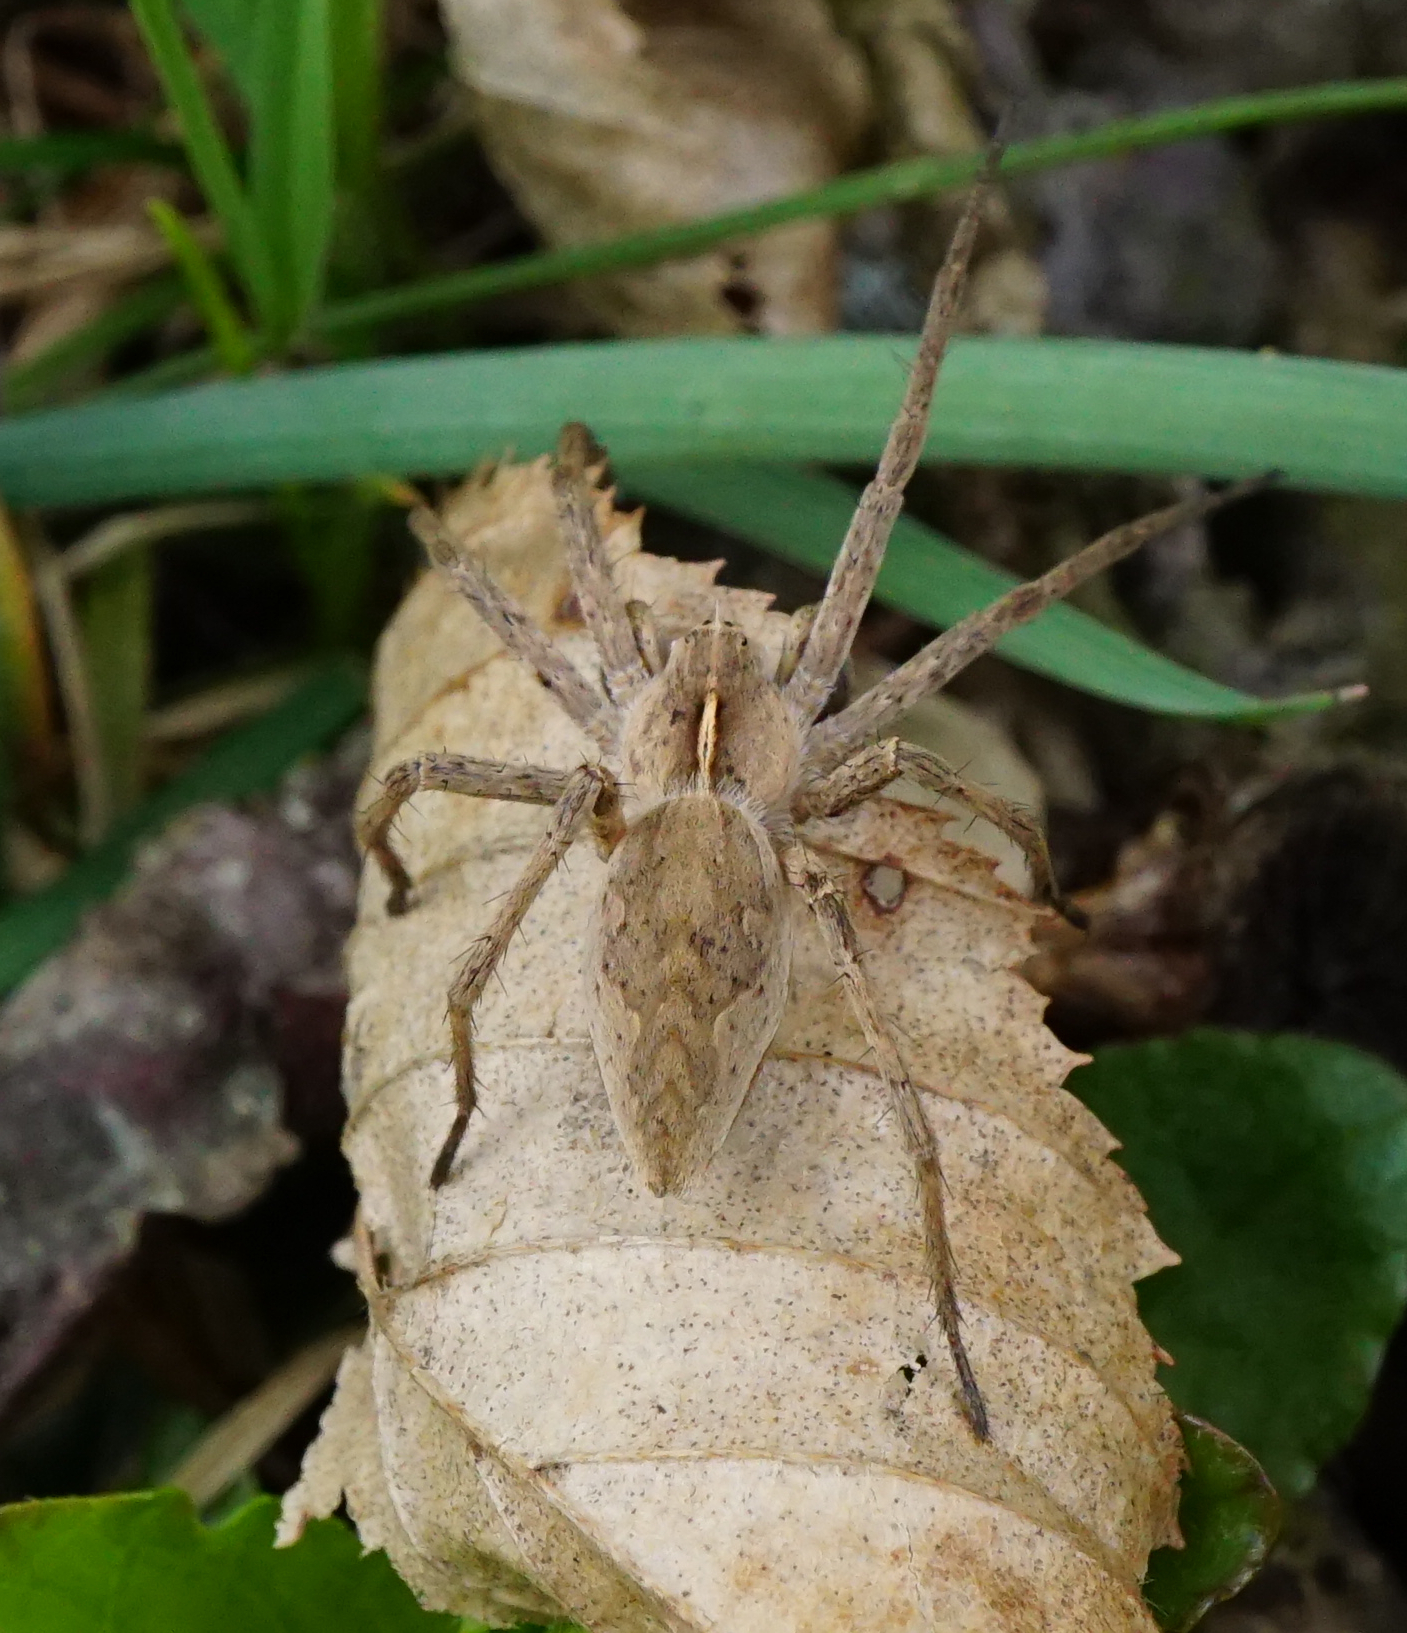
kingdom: Animalia
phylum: Arthropoda
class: Arachnida
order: Araneae
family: Pisauridae
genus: Pisaura
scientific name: Pisaura mirabilis
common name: Tent spider
